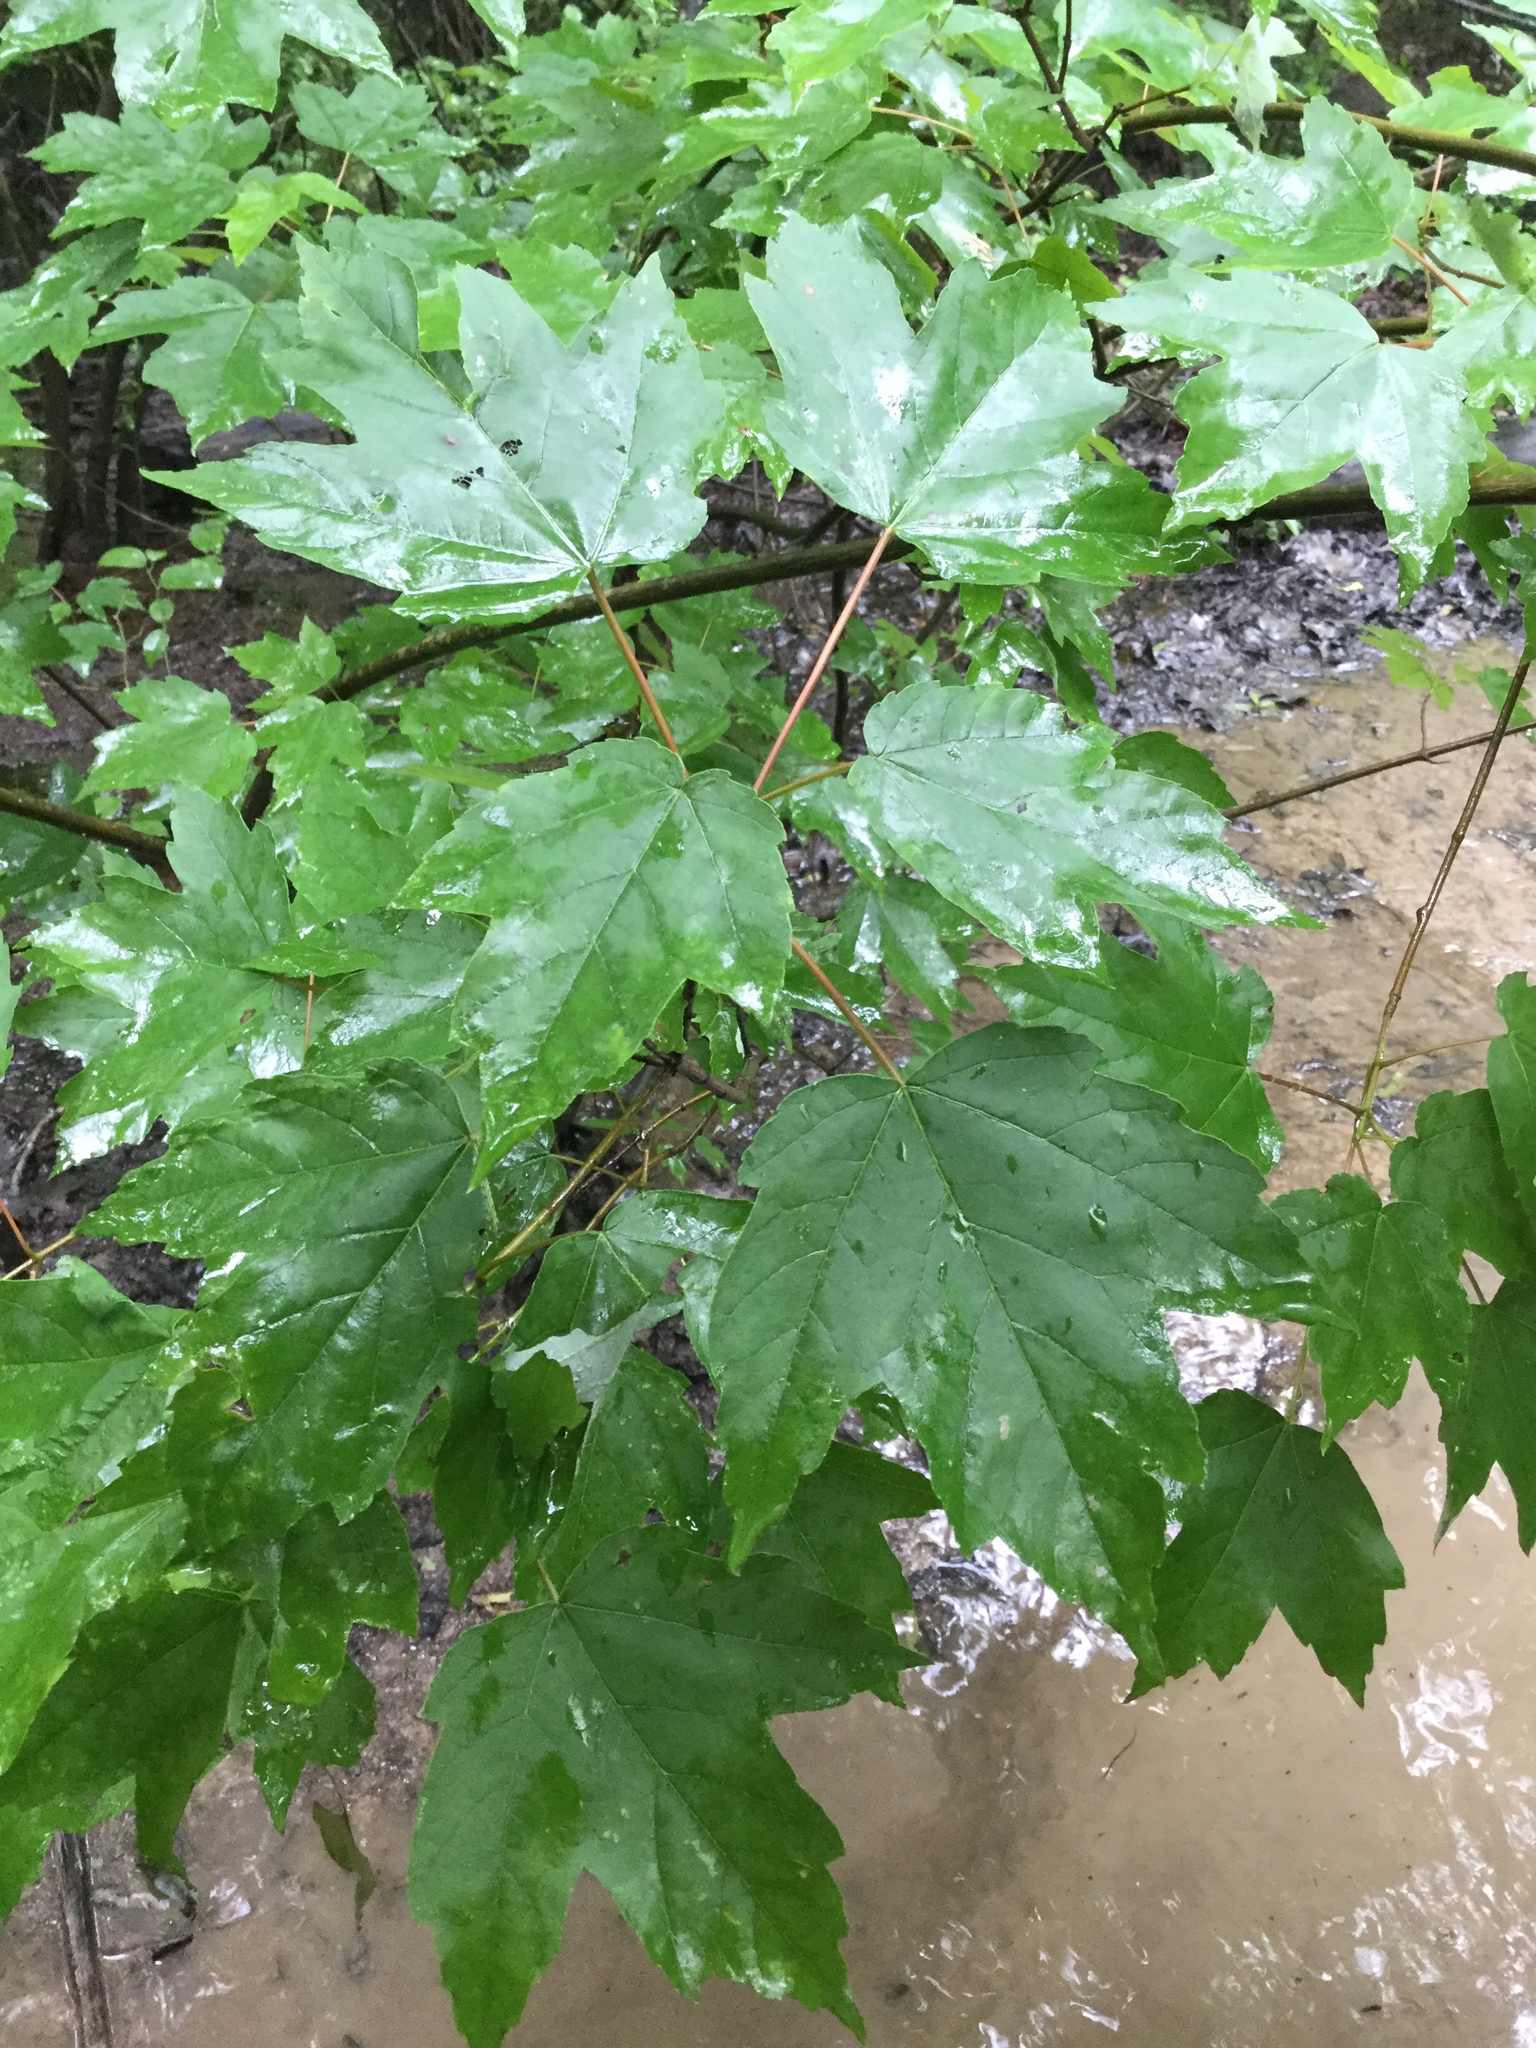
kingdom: Plantae
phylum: Tracheophyta
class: Magnoliopsida
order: Sapindales
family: Sapindaceae
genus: Acer
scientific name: Acer rubrum
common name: Red maple
